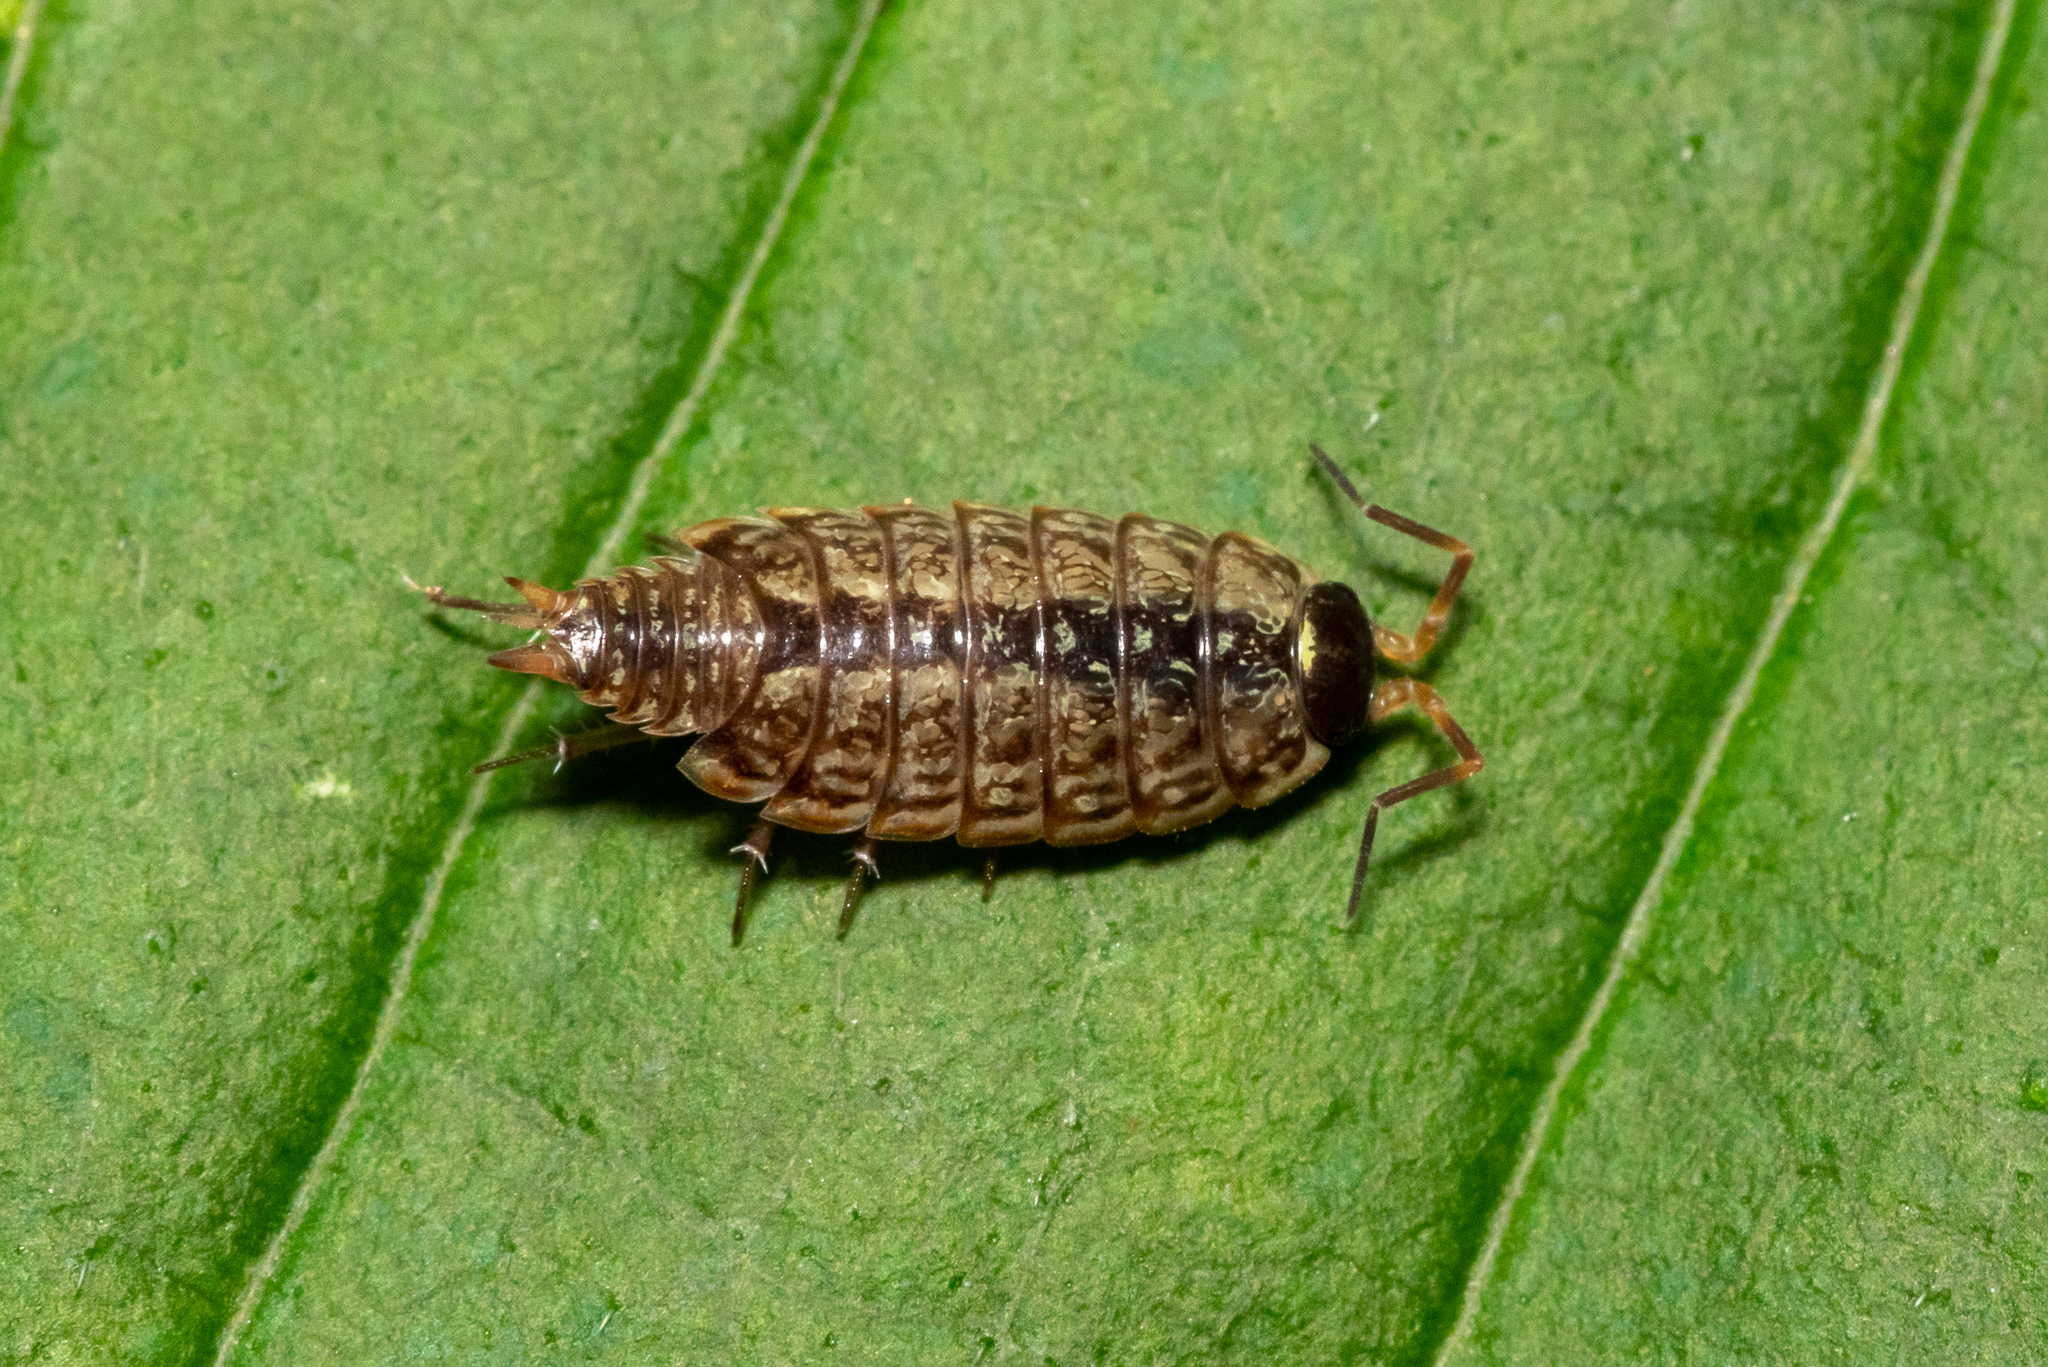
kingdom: Animalia
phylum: Arthropoda
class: Malacostraca
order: Isopoda
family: Philosciidae
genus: Philoscia
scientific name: Philoscia muscorum
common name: Common striped woodlouse
